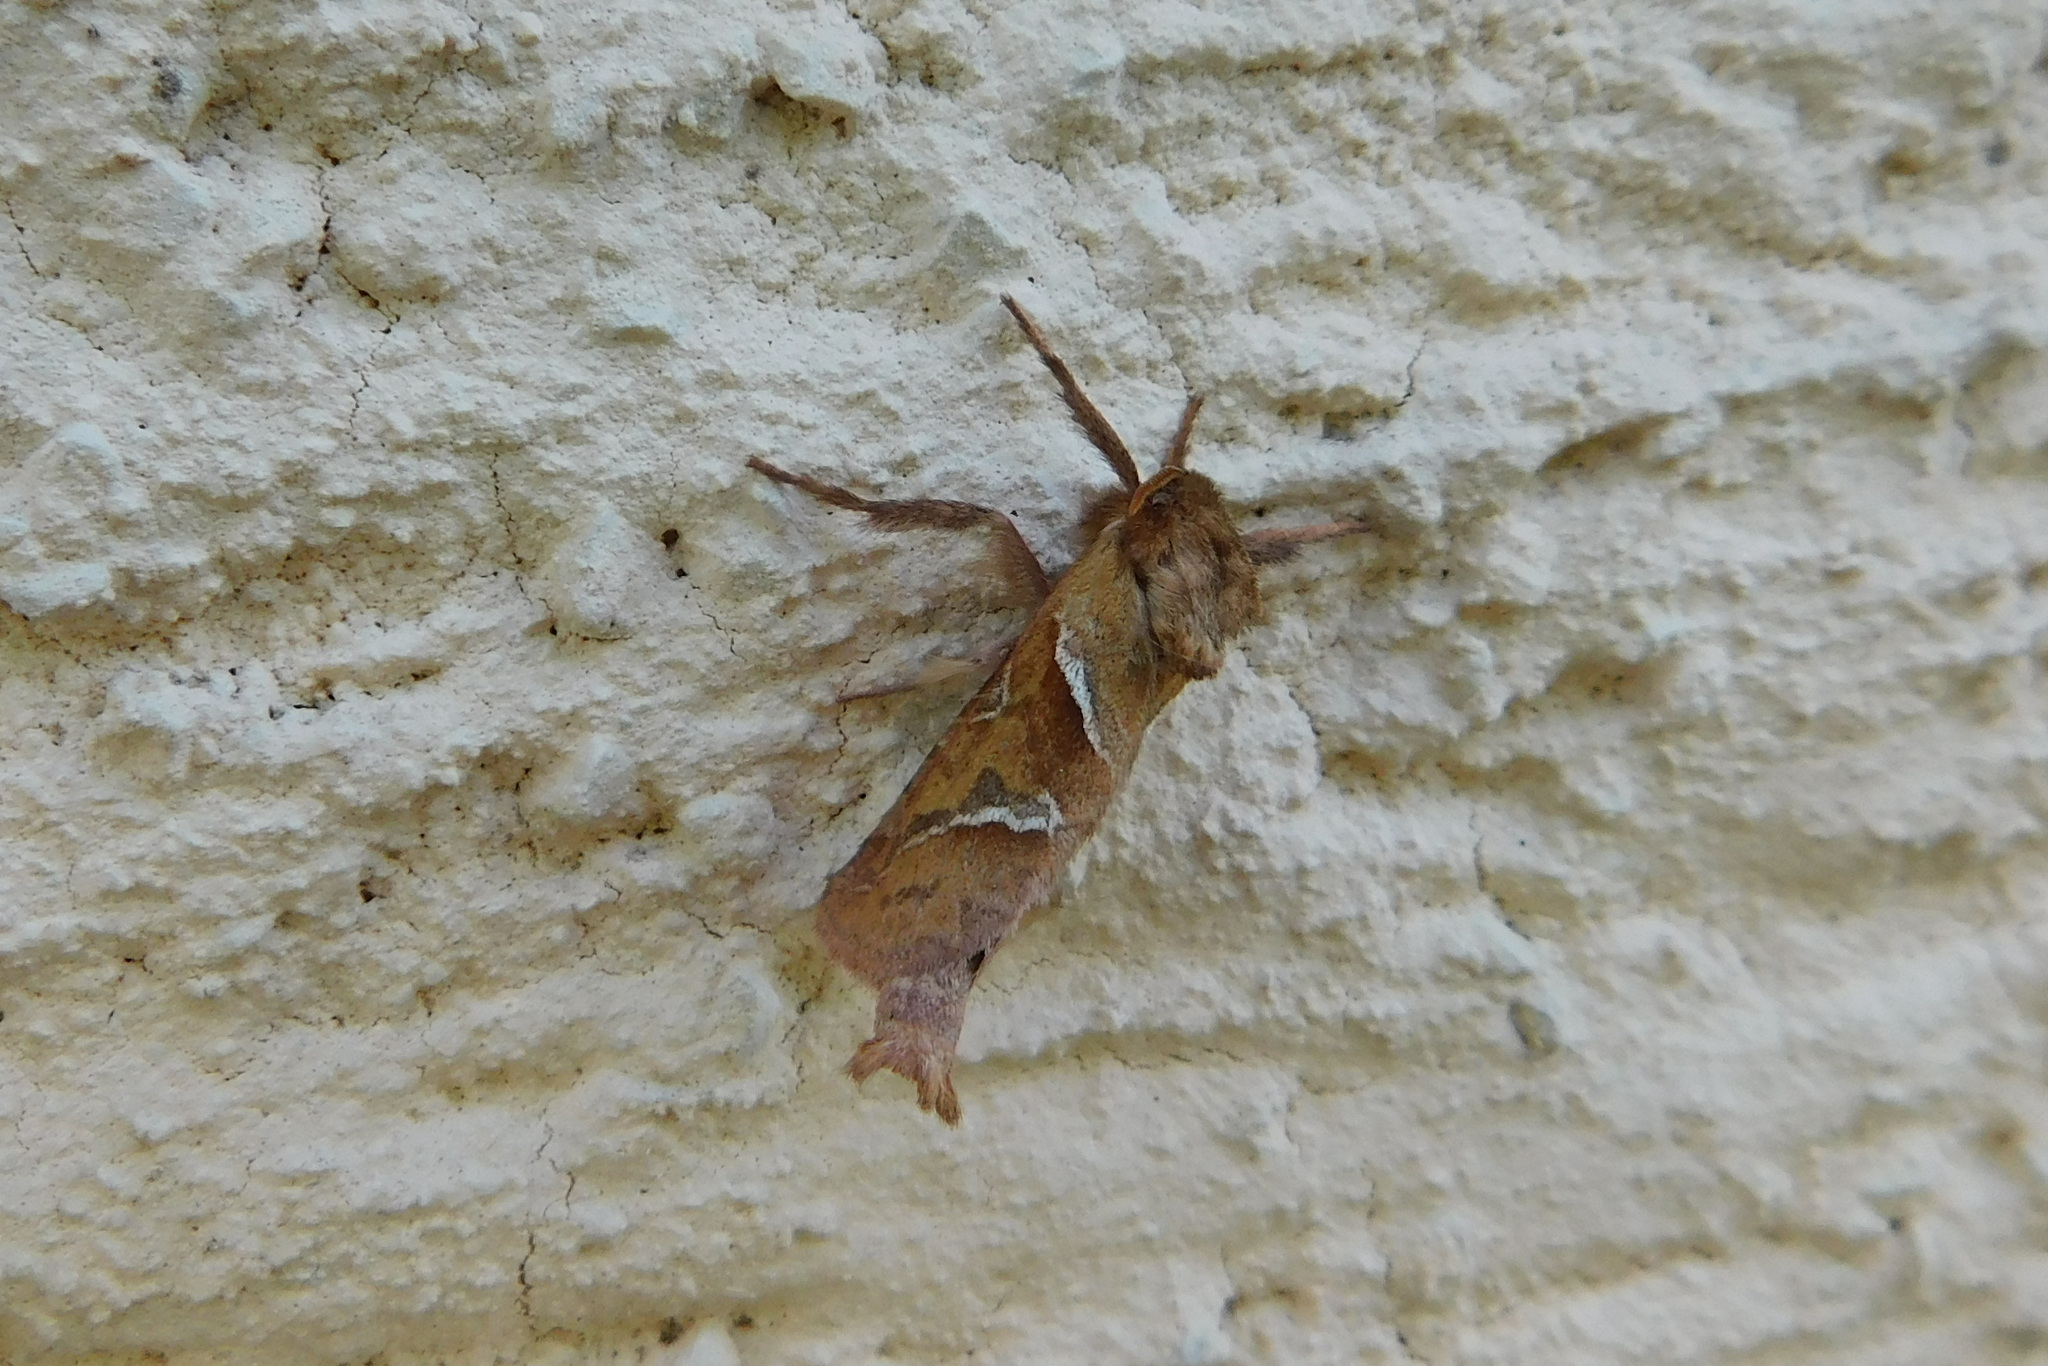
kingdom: Animalia
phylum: Arthropoda
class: Insecta
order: Lepidoptera
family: Hepialidae
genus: Triodia
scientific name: Triodia sylvina
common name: Orange swift
